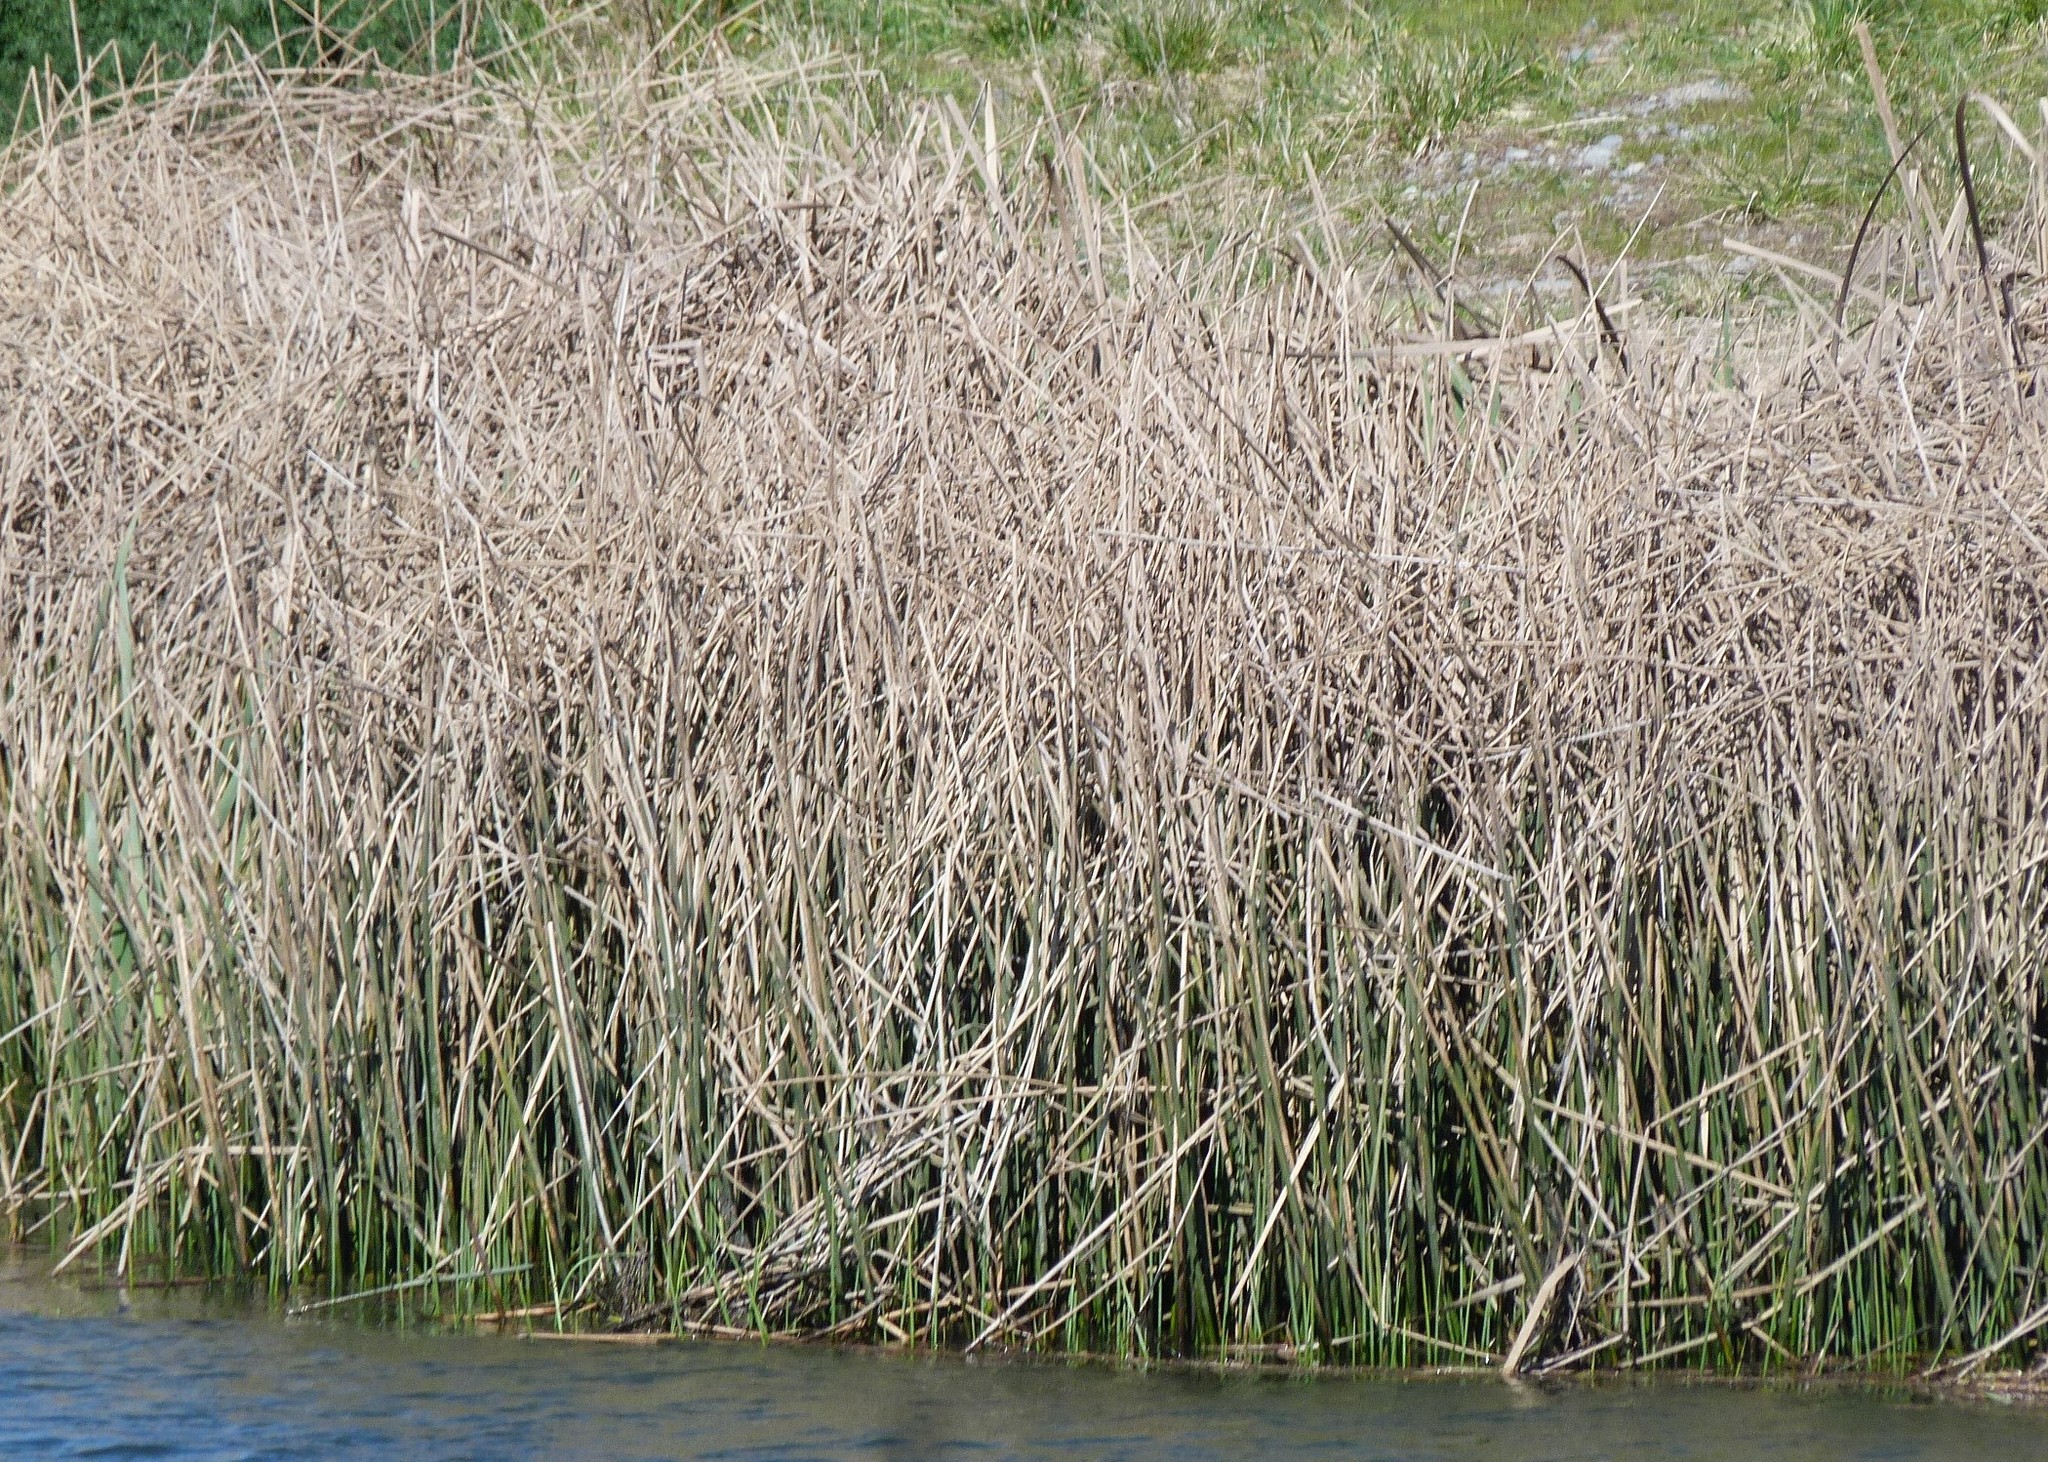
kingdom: Plantae
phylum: Tracheophyta
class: Liliopsida
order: Poales
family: Cyperaceae
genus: Schoenoplectus
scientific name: Schoenoplectus tabernaemontani
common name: Grey club-rush
